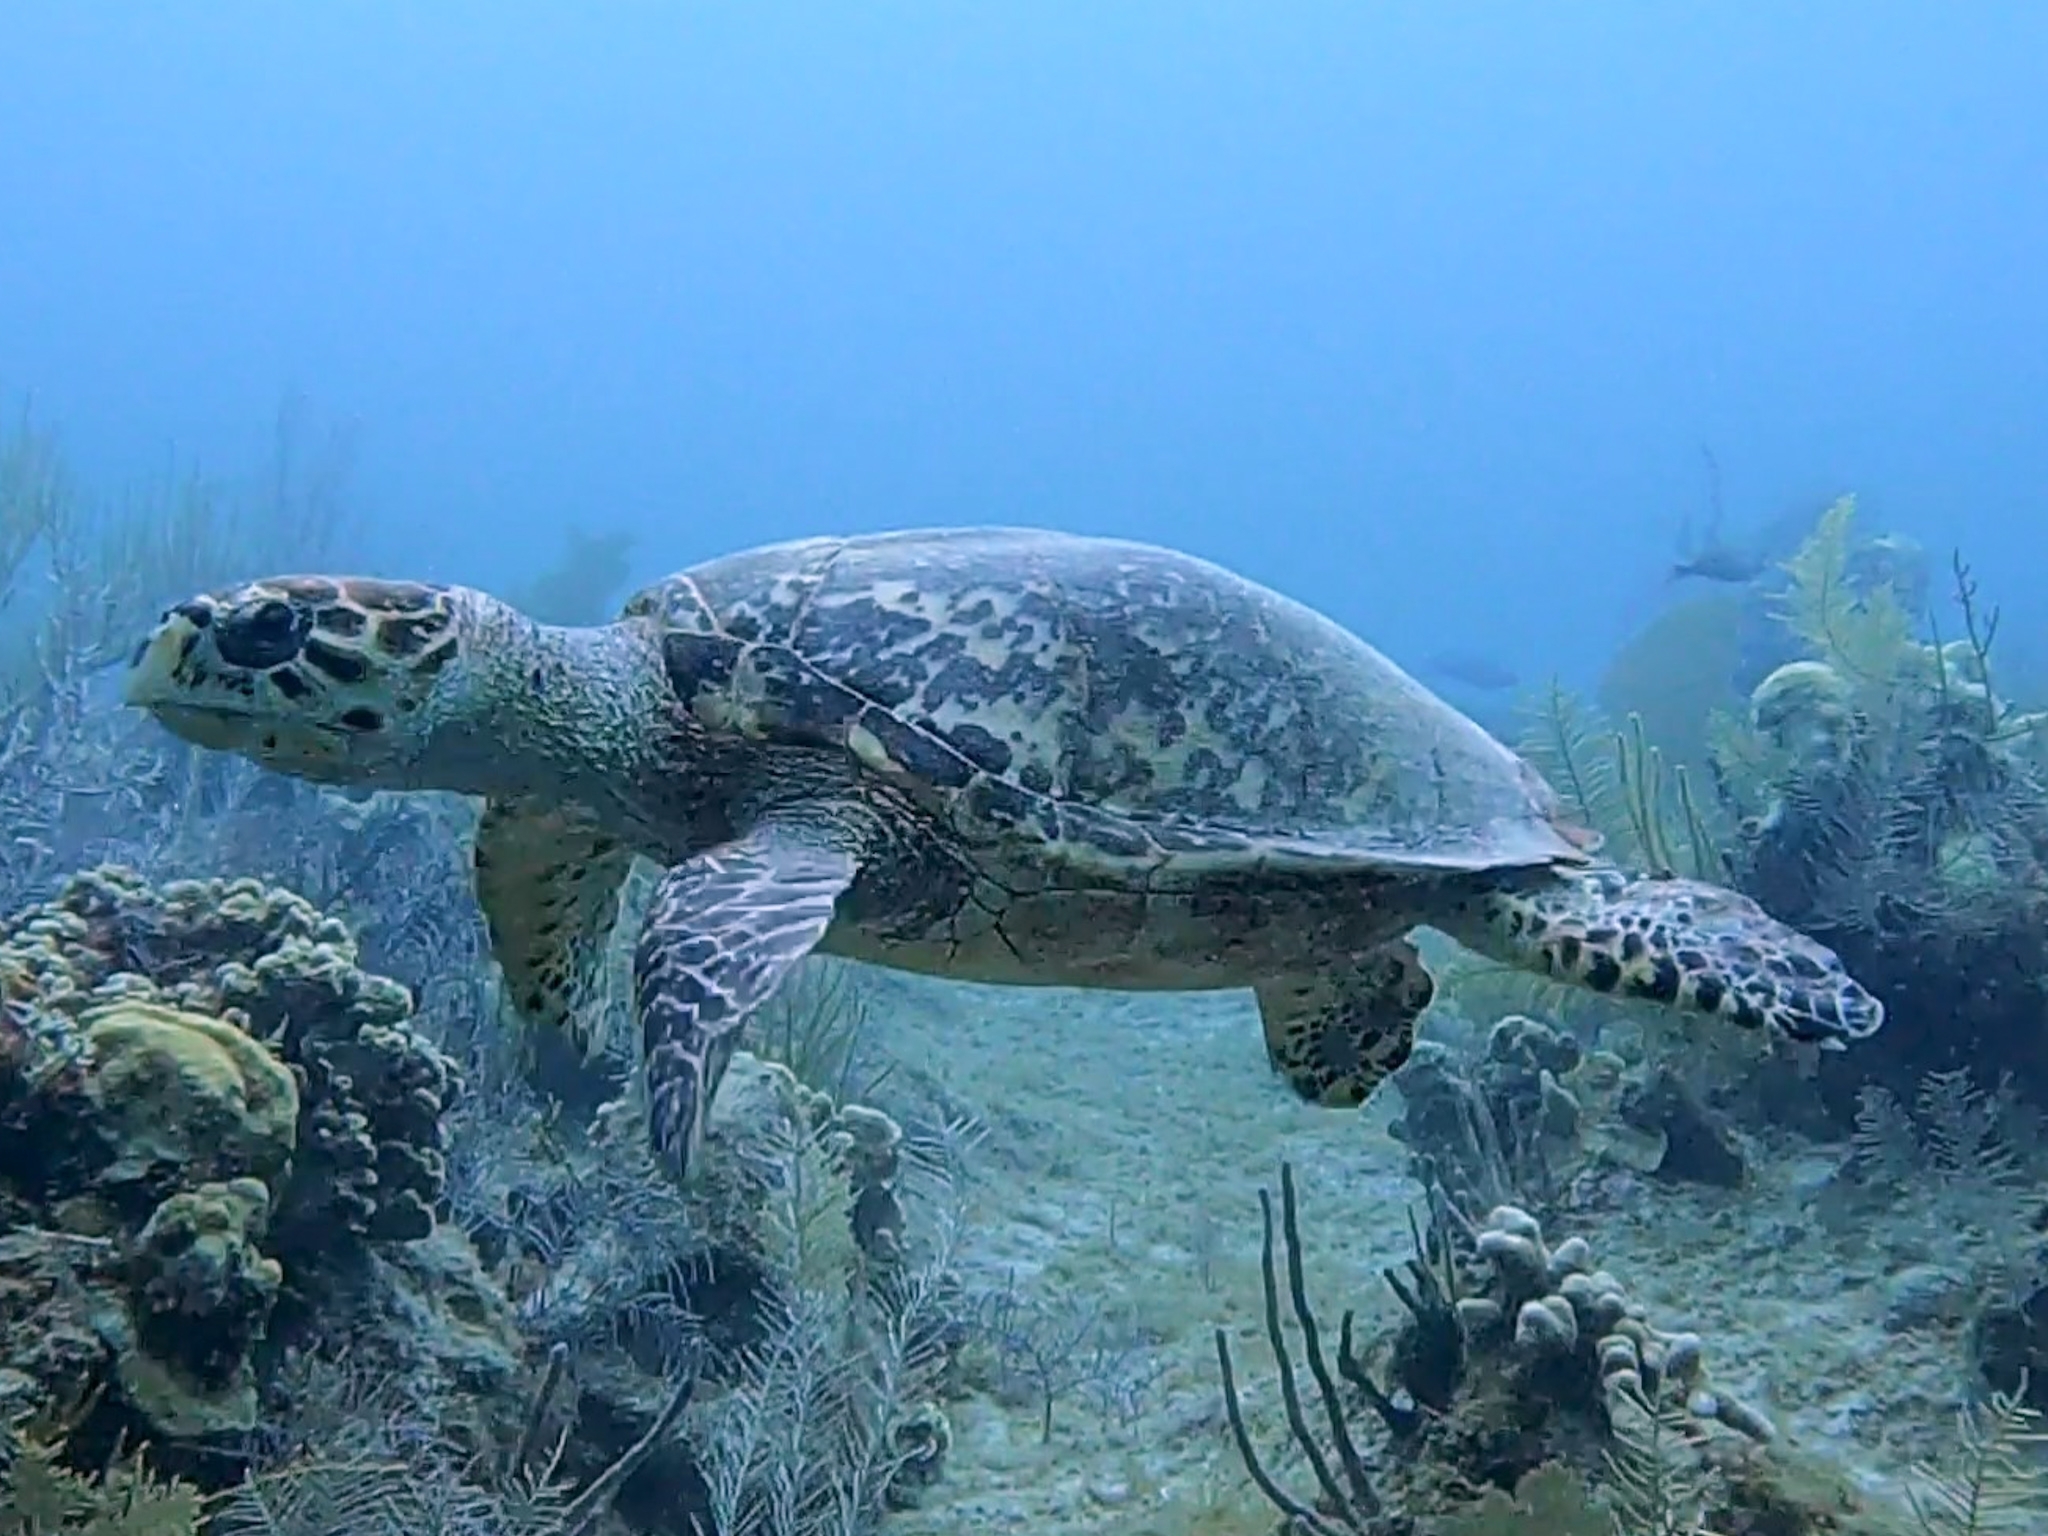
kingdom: Animalia
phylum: Chordata
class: Testudines
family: Cheloniidae
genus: Eretmochelys
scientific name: Eretmochelys imbricata
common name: Hawksbill turtle
